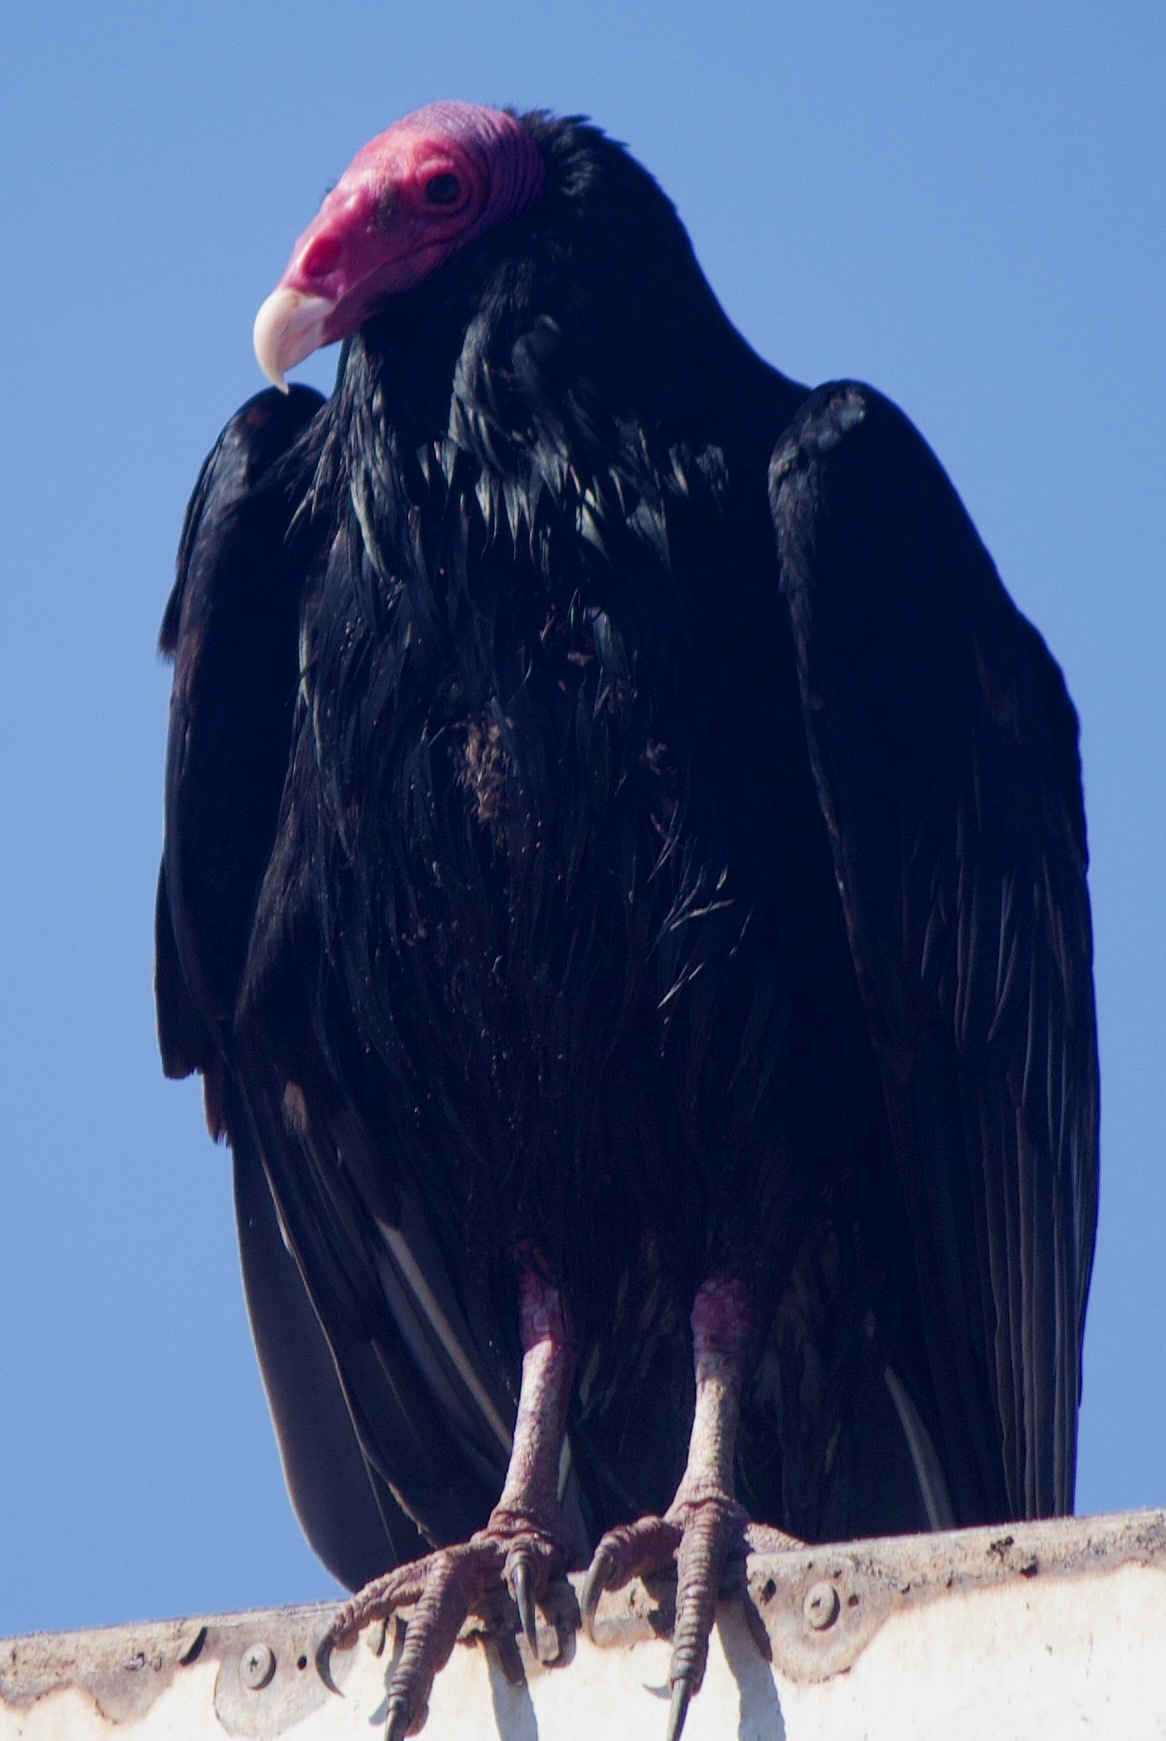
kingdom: Animalia
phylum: Chordata
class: Aves
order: Accipitriformes
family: Cathartidae
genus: Cathartes
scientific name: Cathartes aura
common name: Turkey vulture
